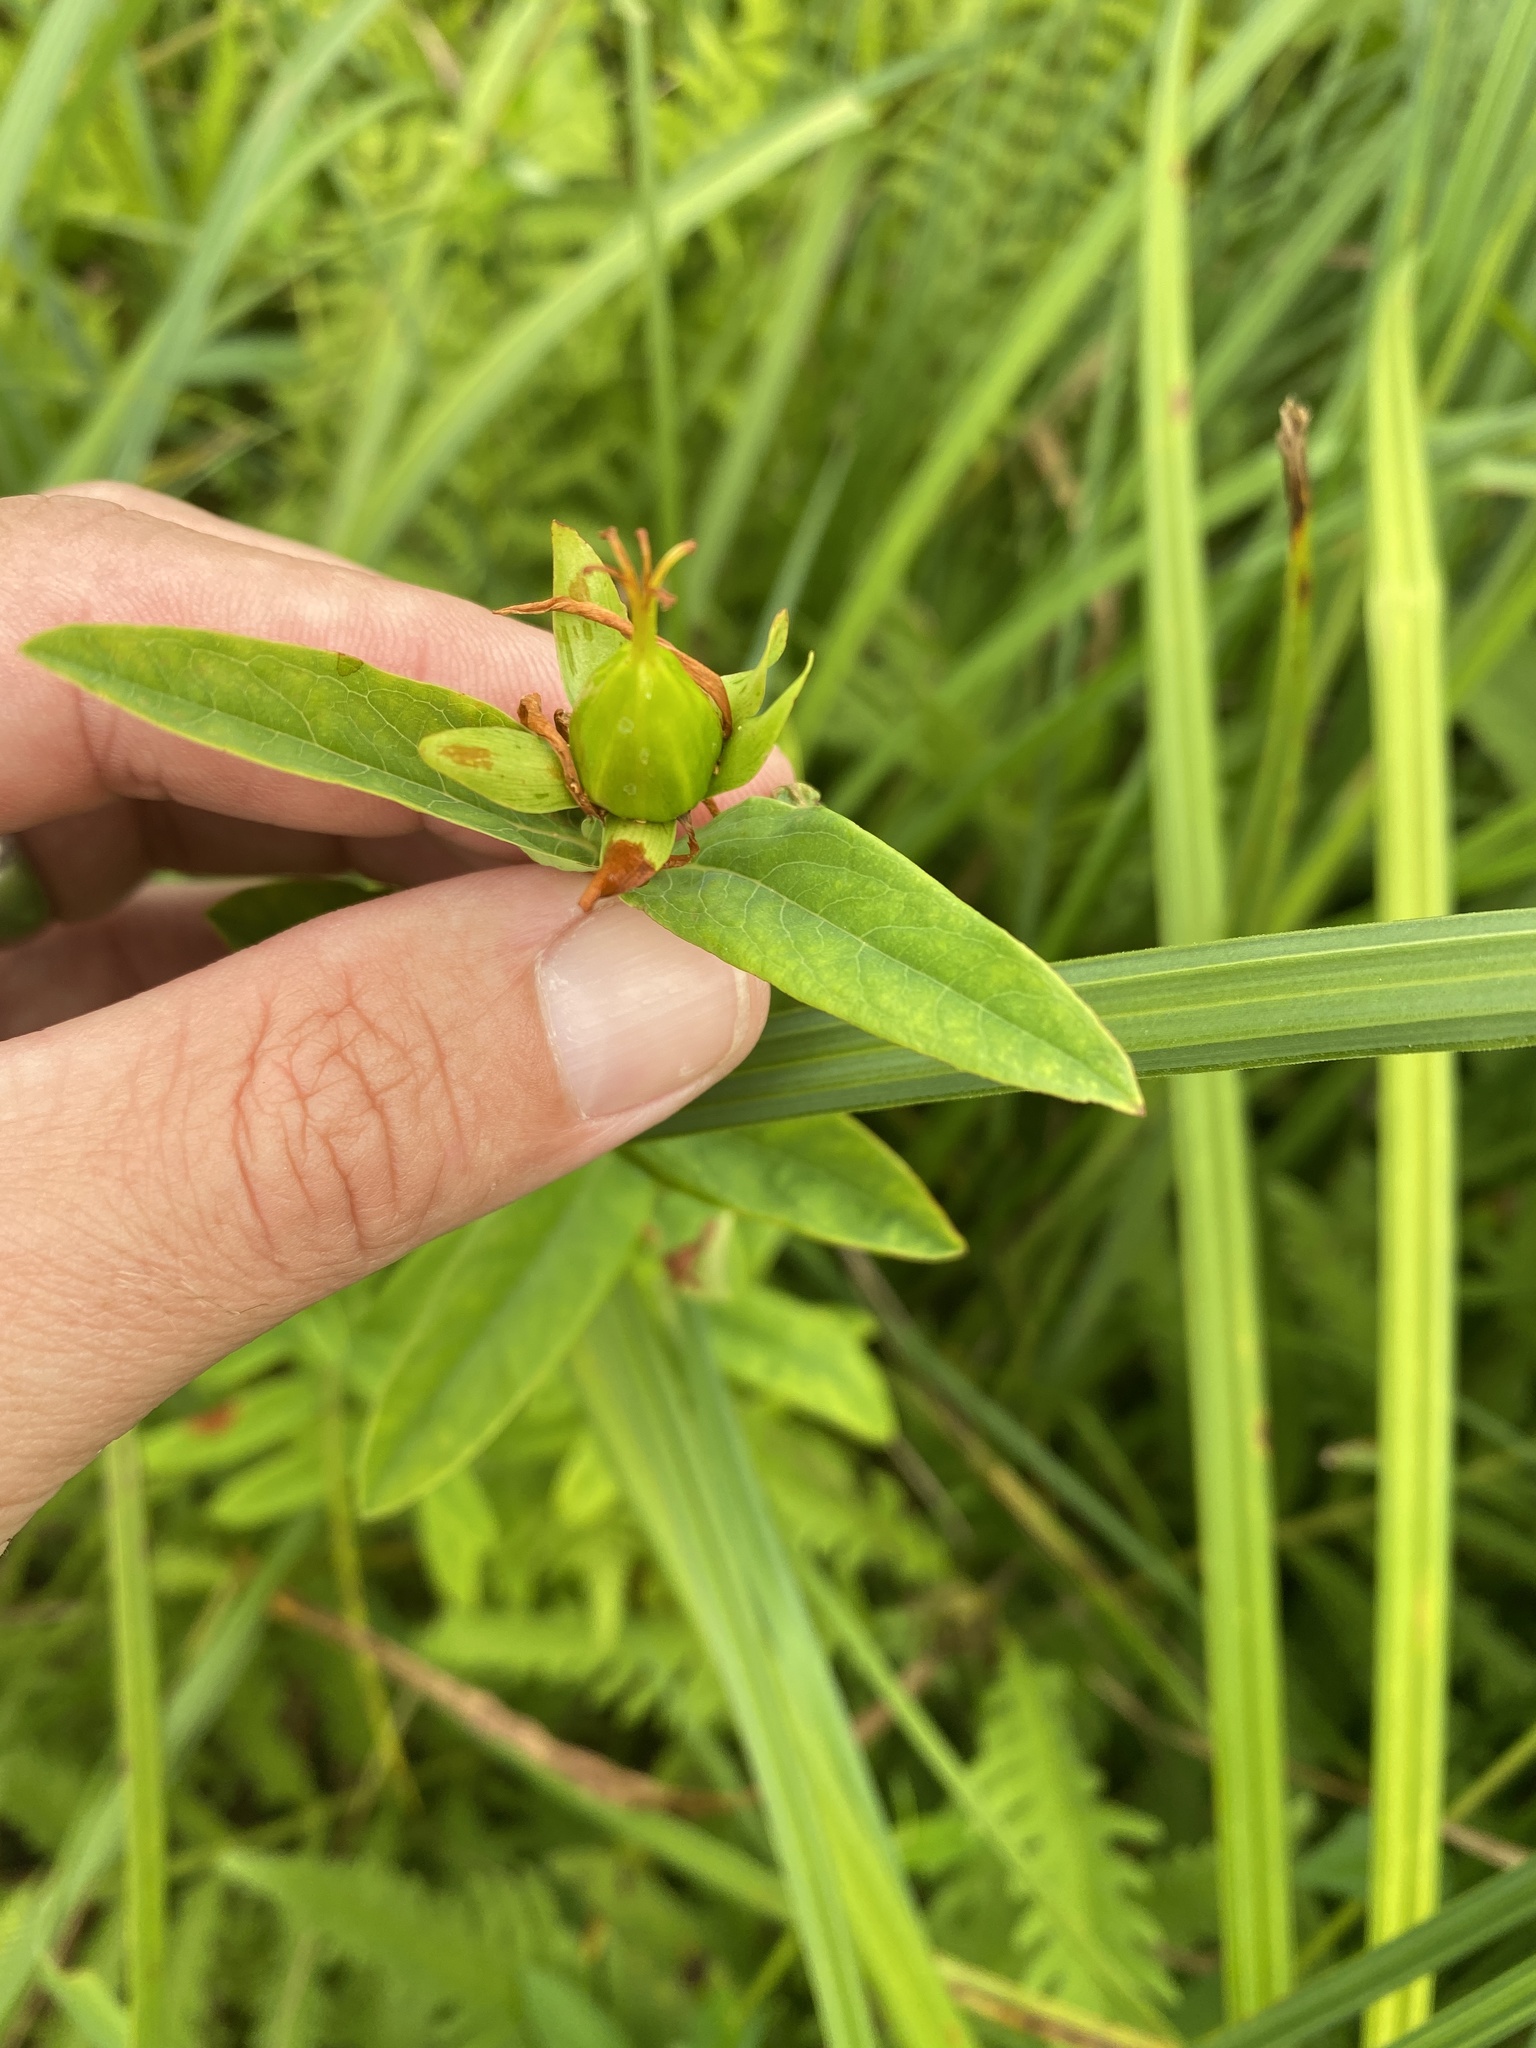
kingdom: Plantae
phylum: Tracheophyta
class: Magnoliopsida
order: Malpighiales
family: Hypericaceae
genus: Hypericum
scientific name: Hypericum ascyron
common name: Giant st. john's-wort
